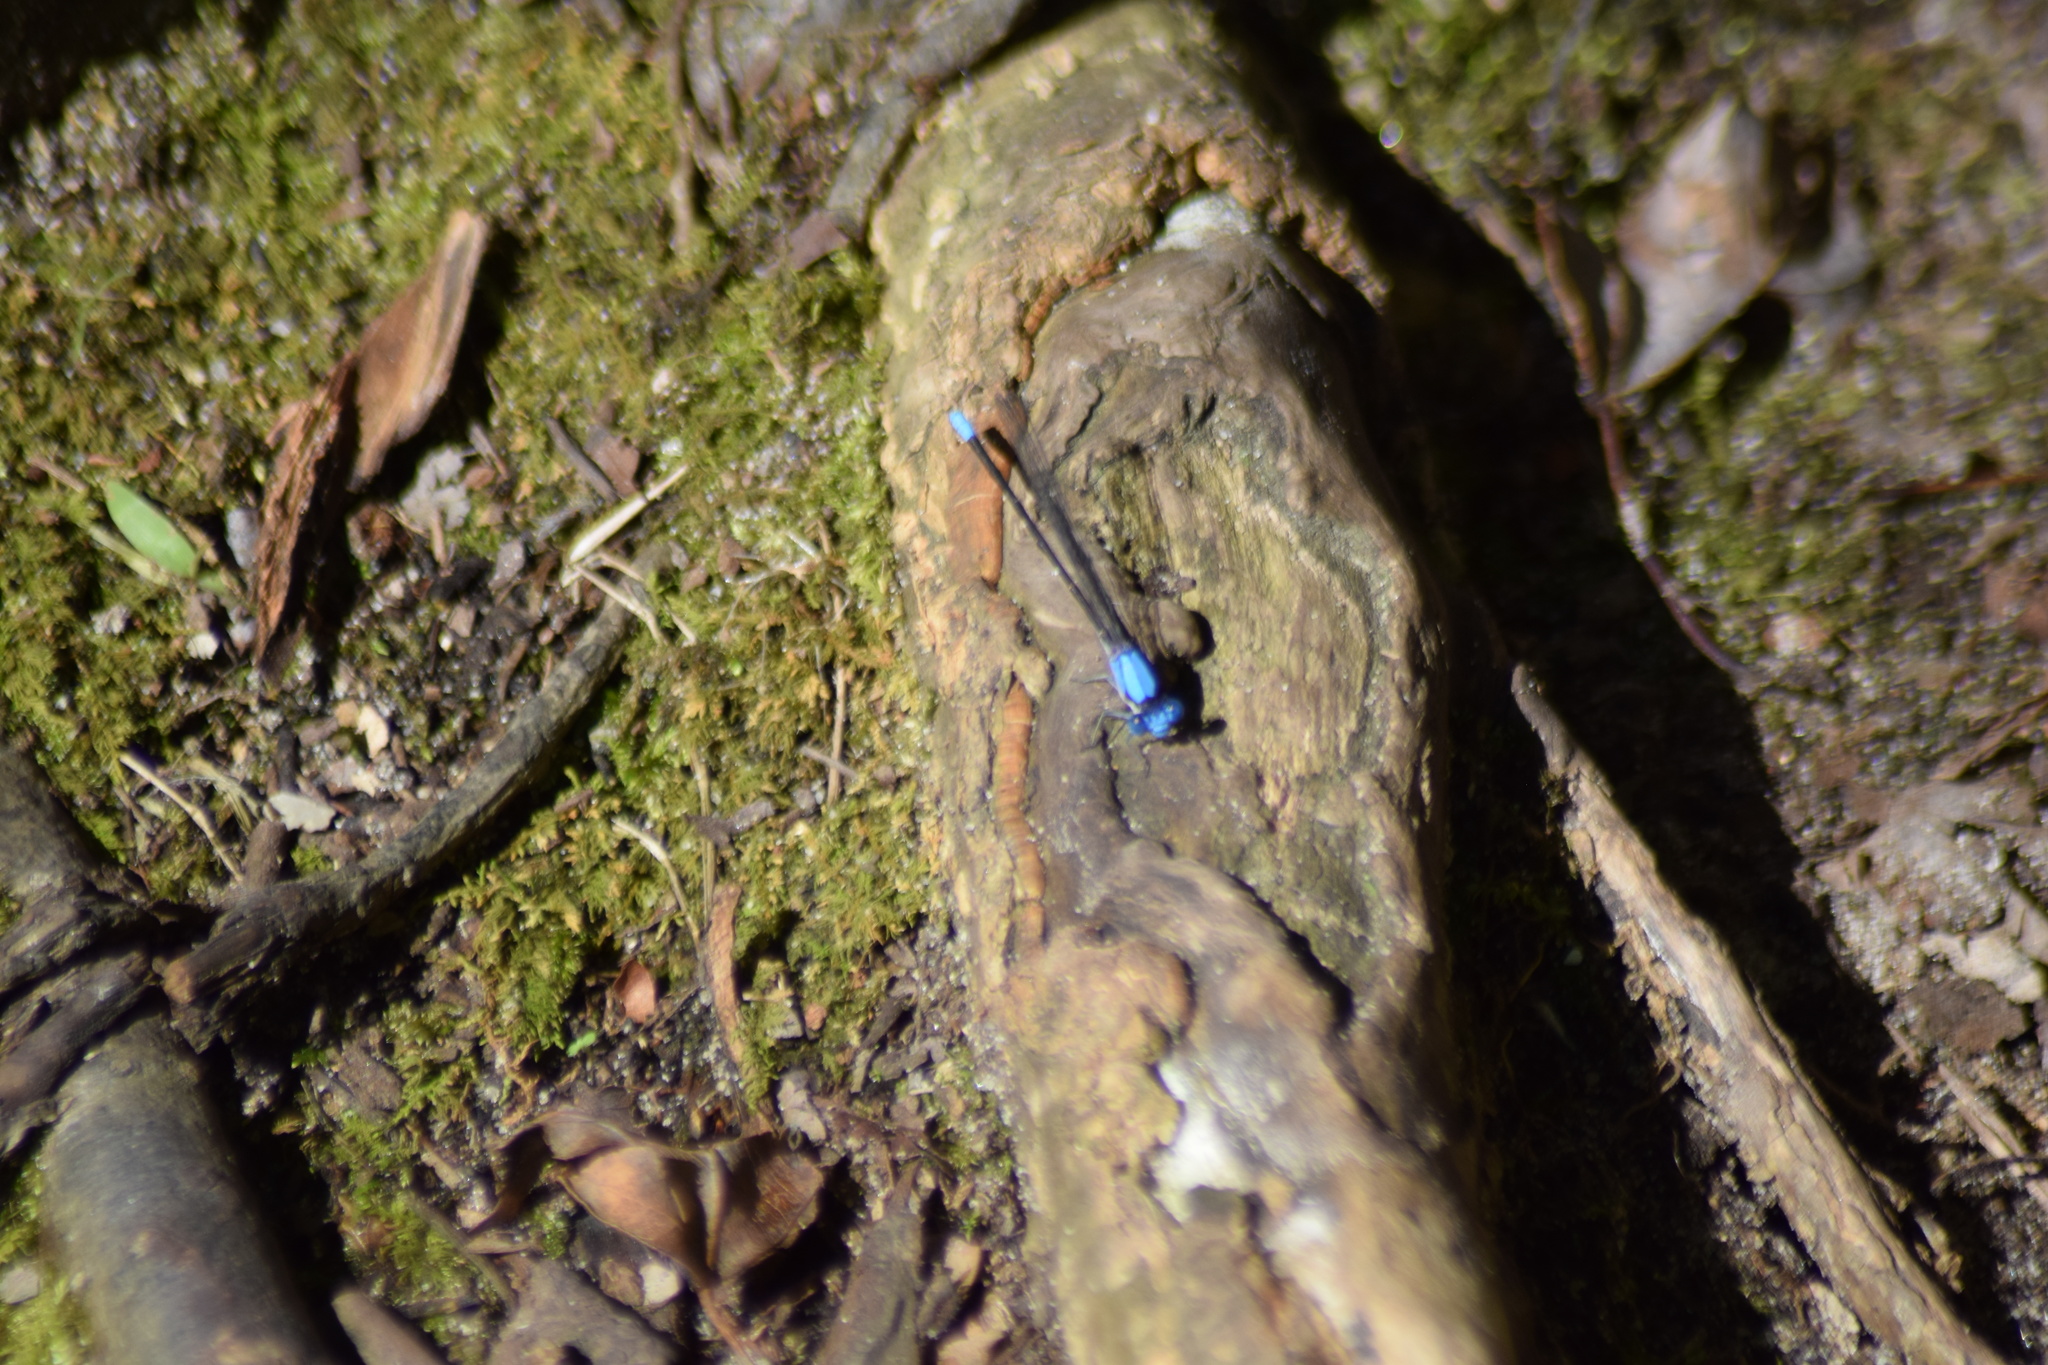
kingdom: Animalia
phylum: Arthropoda
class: Insecta
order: Odonata
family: Coenagrionidae
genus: Argia
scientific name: Argia apicalis
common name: Blue-fronted dancer
